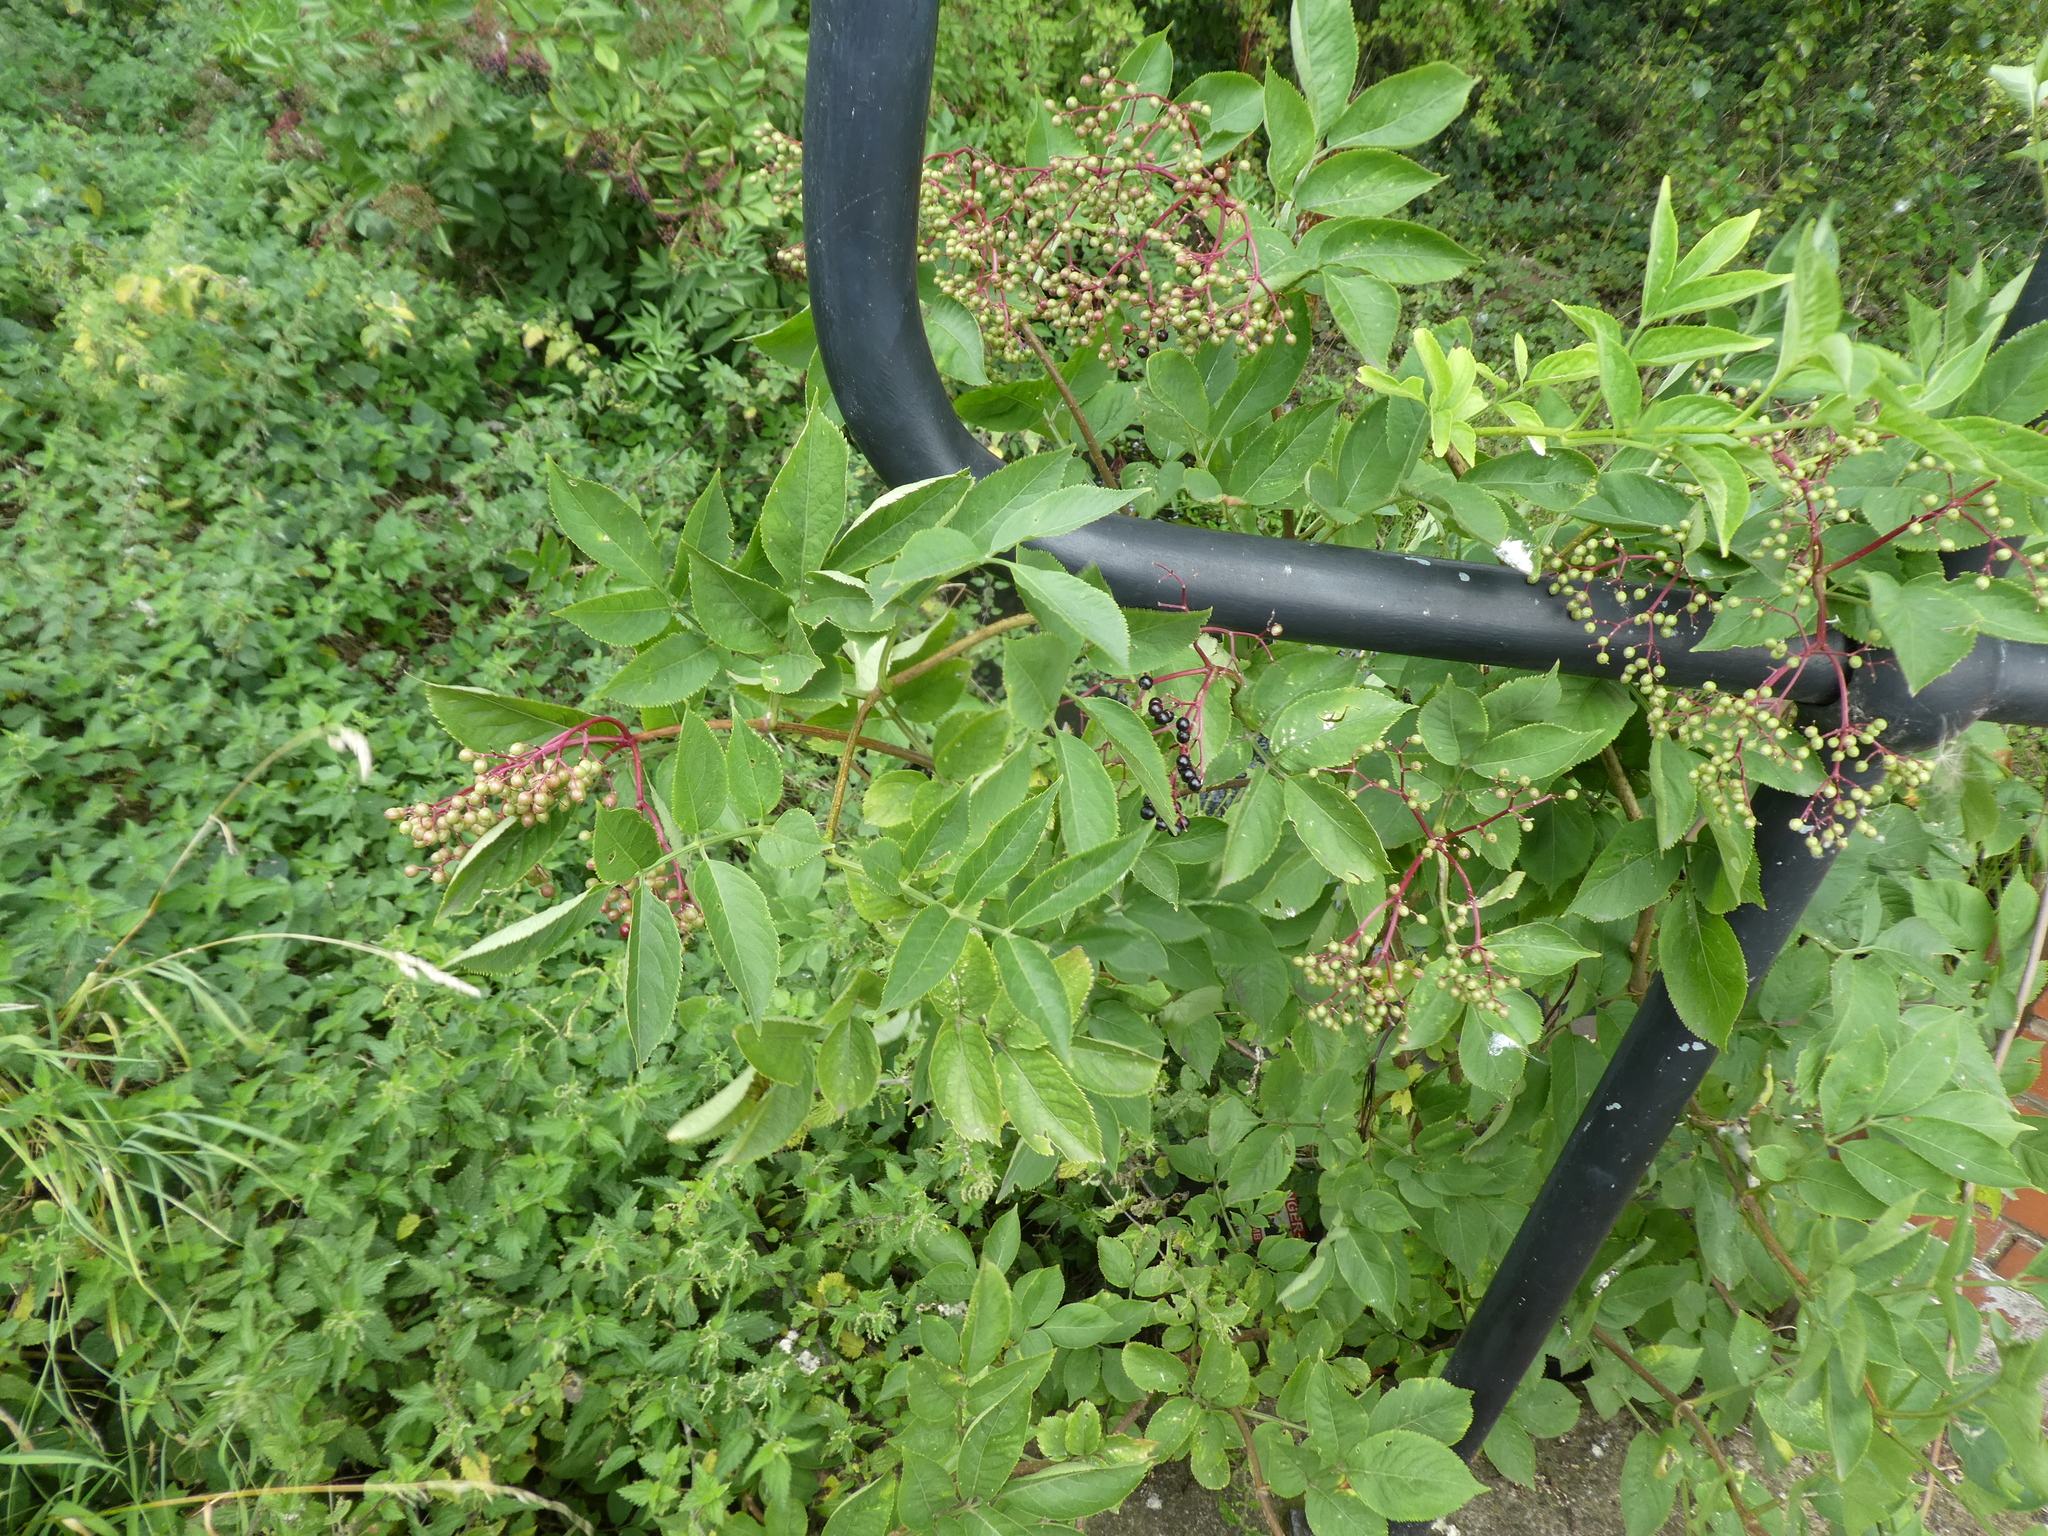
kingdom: Plantae
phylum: Tracheophyta
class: Magnoliopsida
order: Dipsacales
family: Viburnaceae
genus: Sambucus
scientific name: Sambucus nigra
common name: Elder
